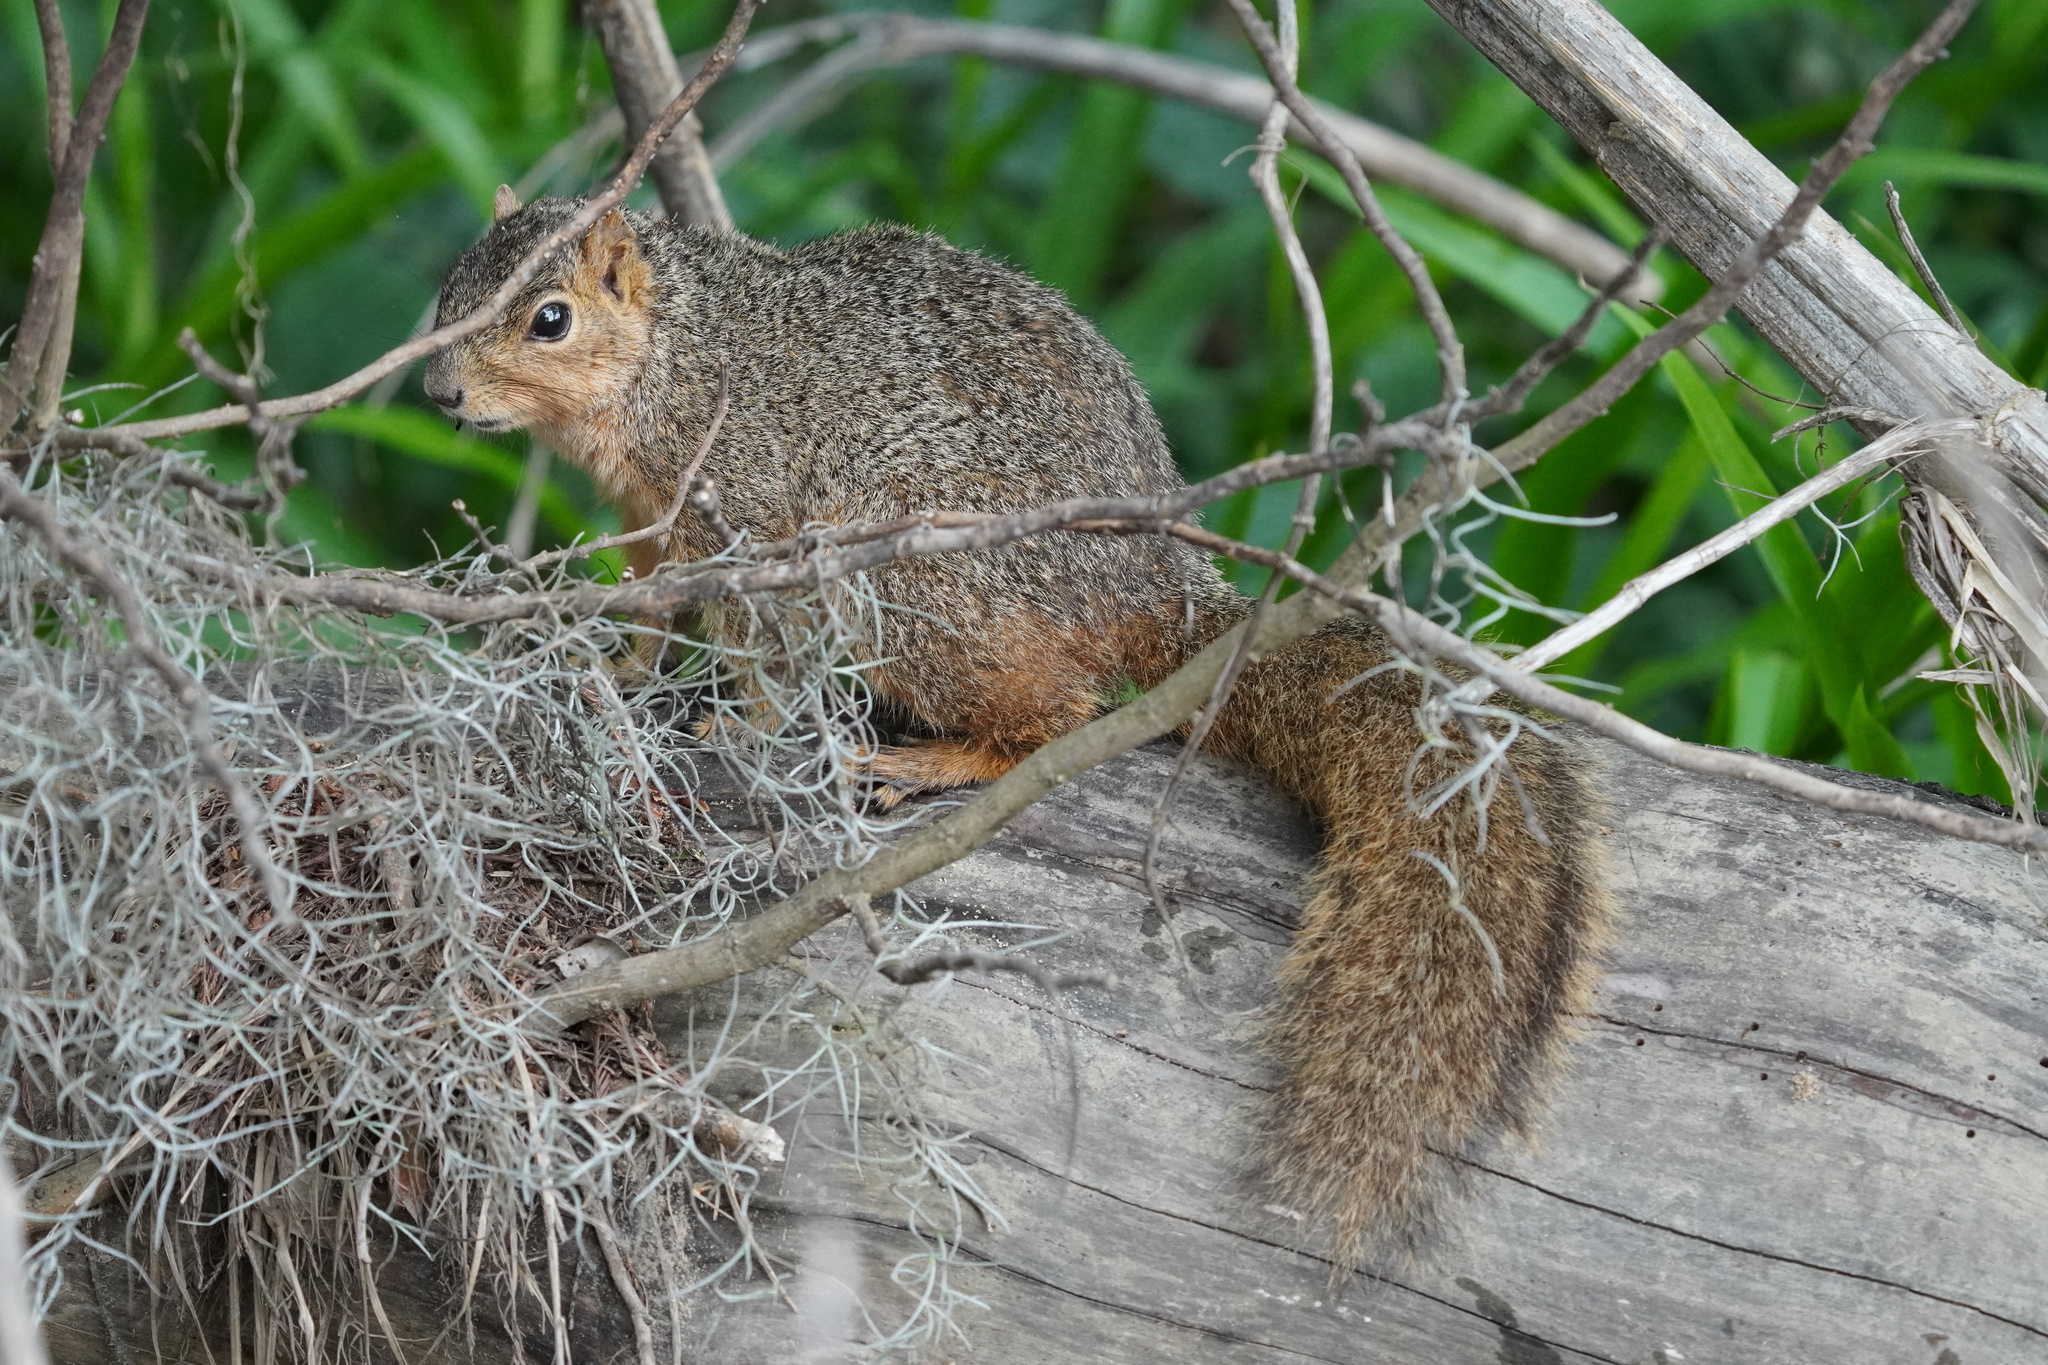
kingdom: Animalia
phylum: Chordata
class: Mammalia
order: Rodentia
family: Sciuridae
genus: Sciurus
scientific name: Sciurus niger
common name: Fox squirrel
